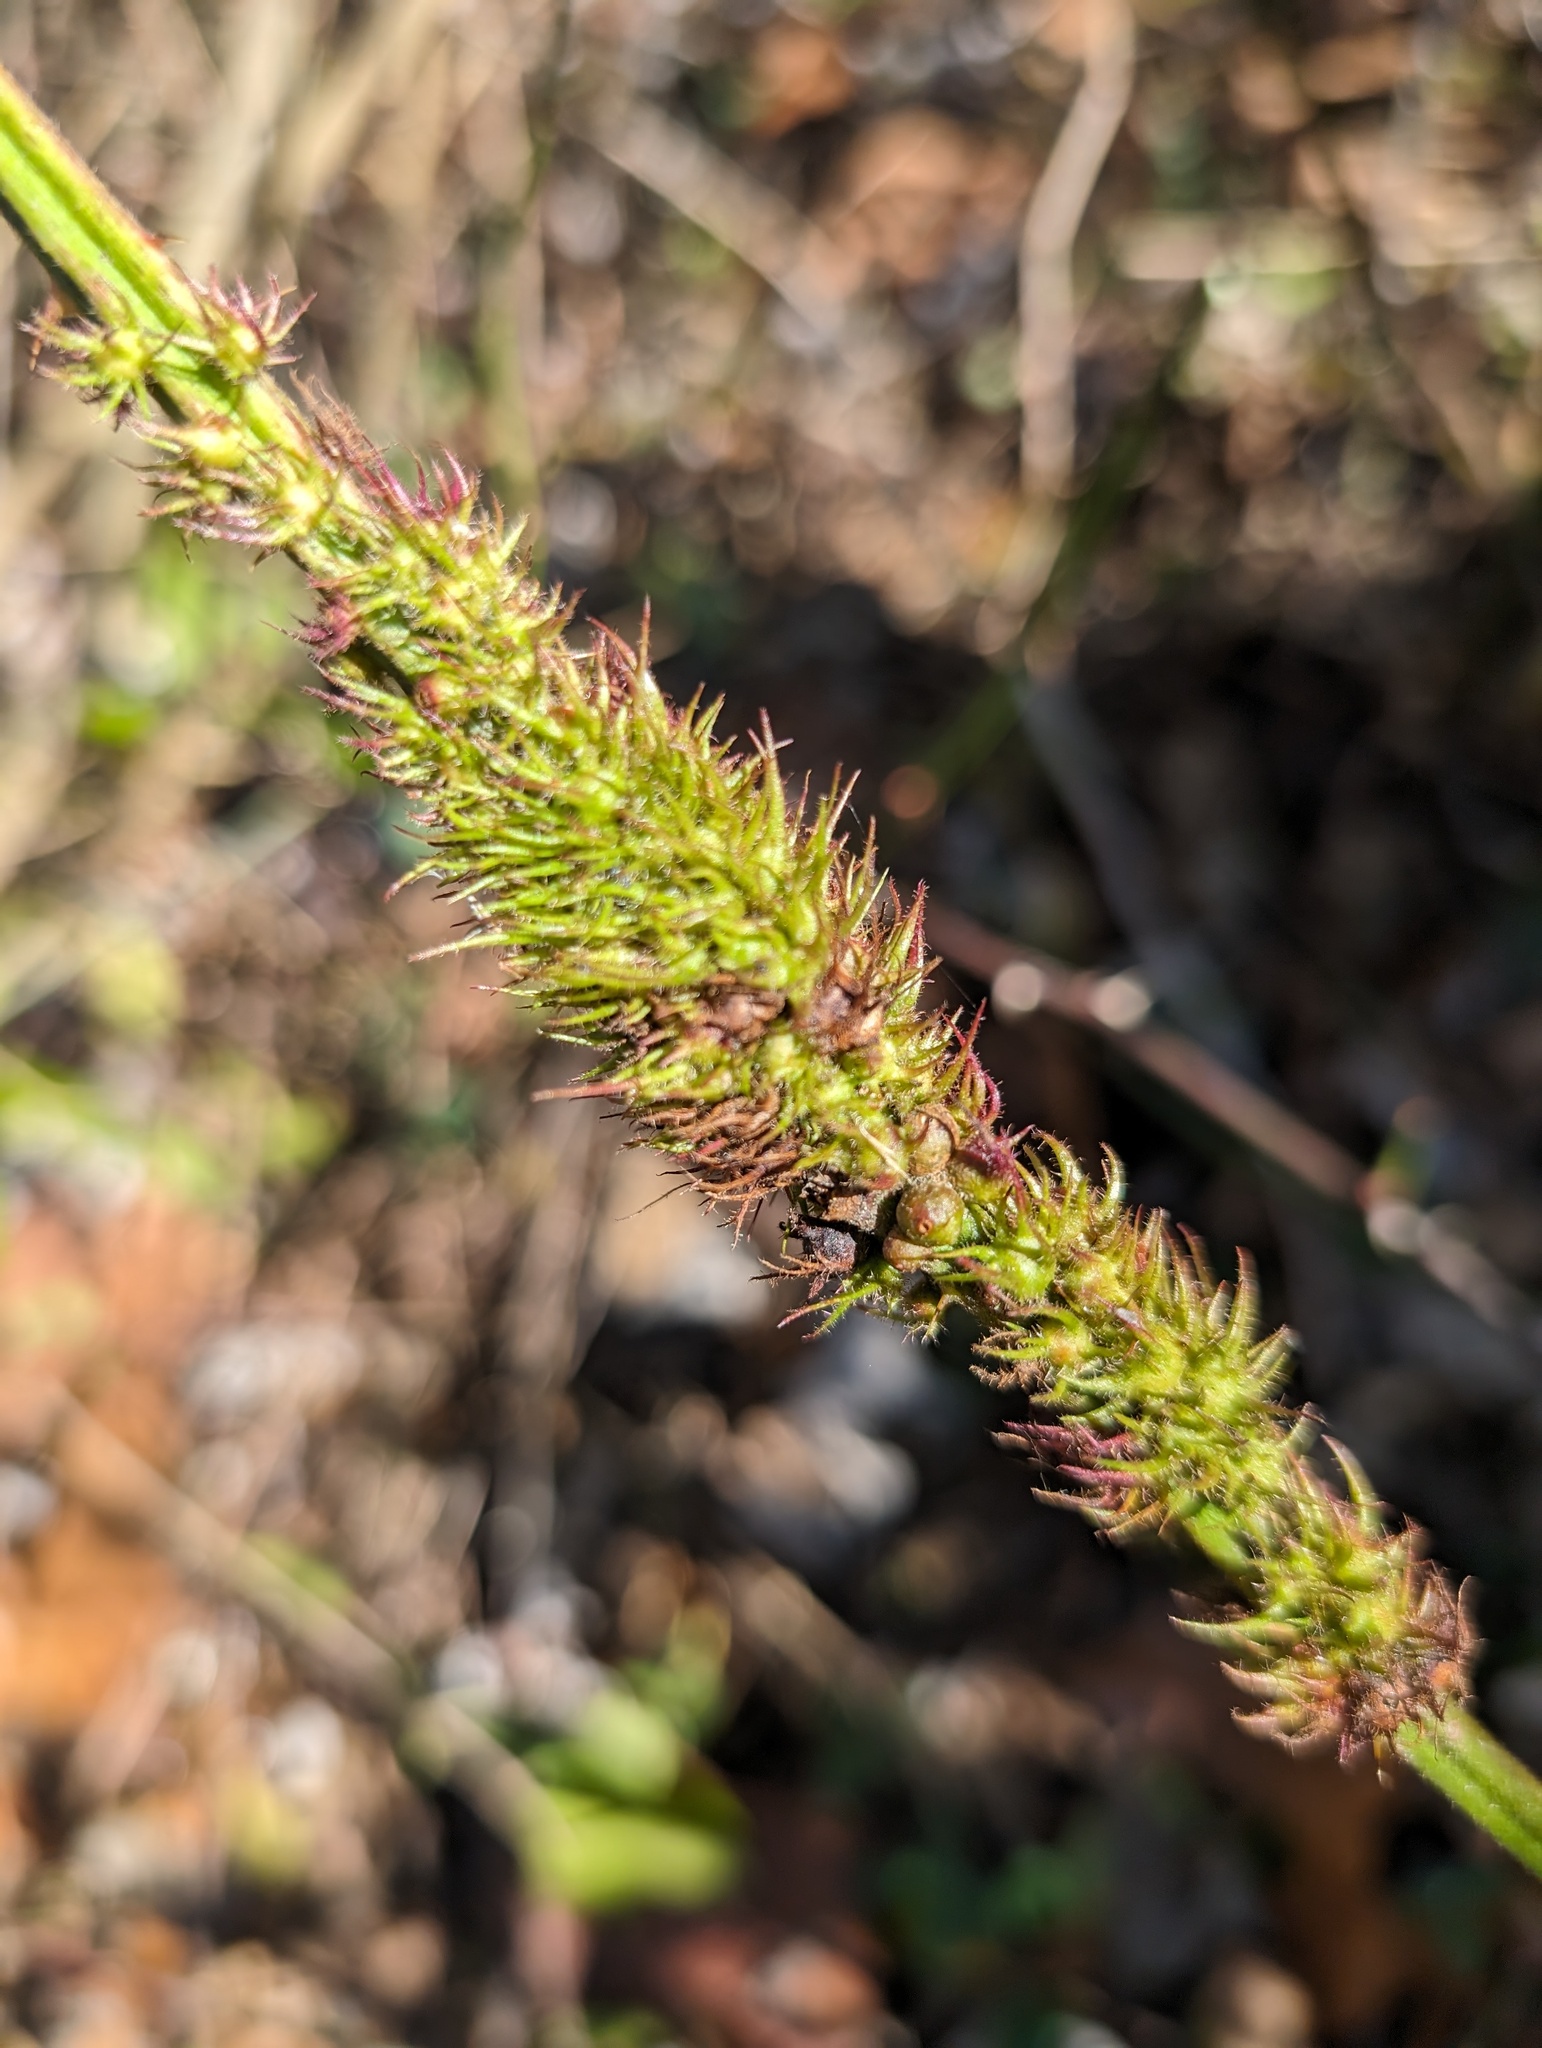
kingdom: Animalia
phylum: Arthropoda
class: Insecta
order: Hymenoptera
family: Cynipidae
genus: Diastrophus
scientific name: Diastrophus
